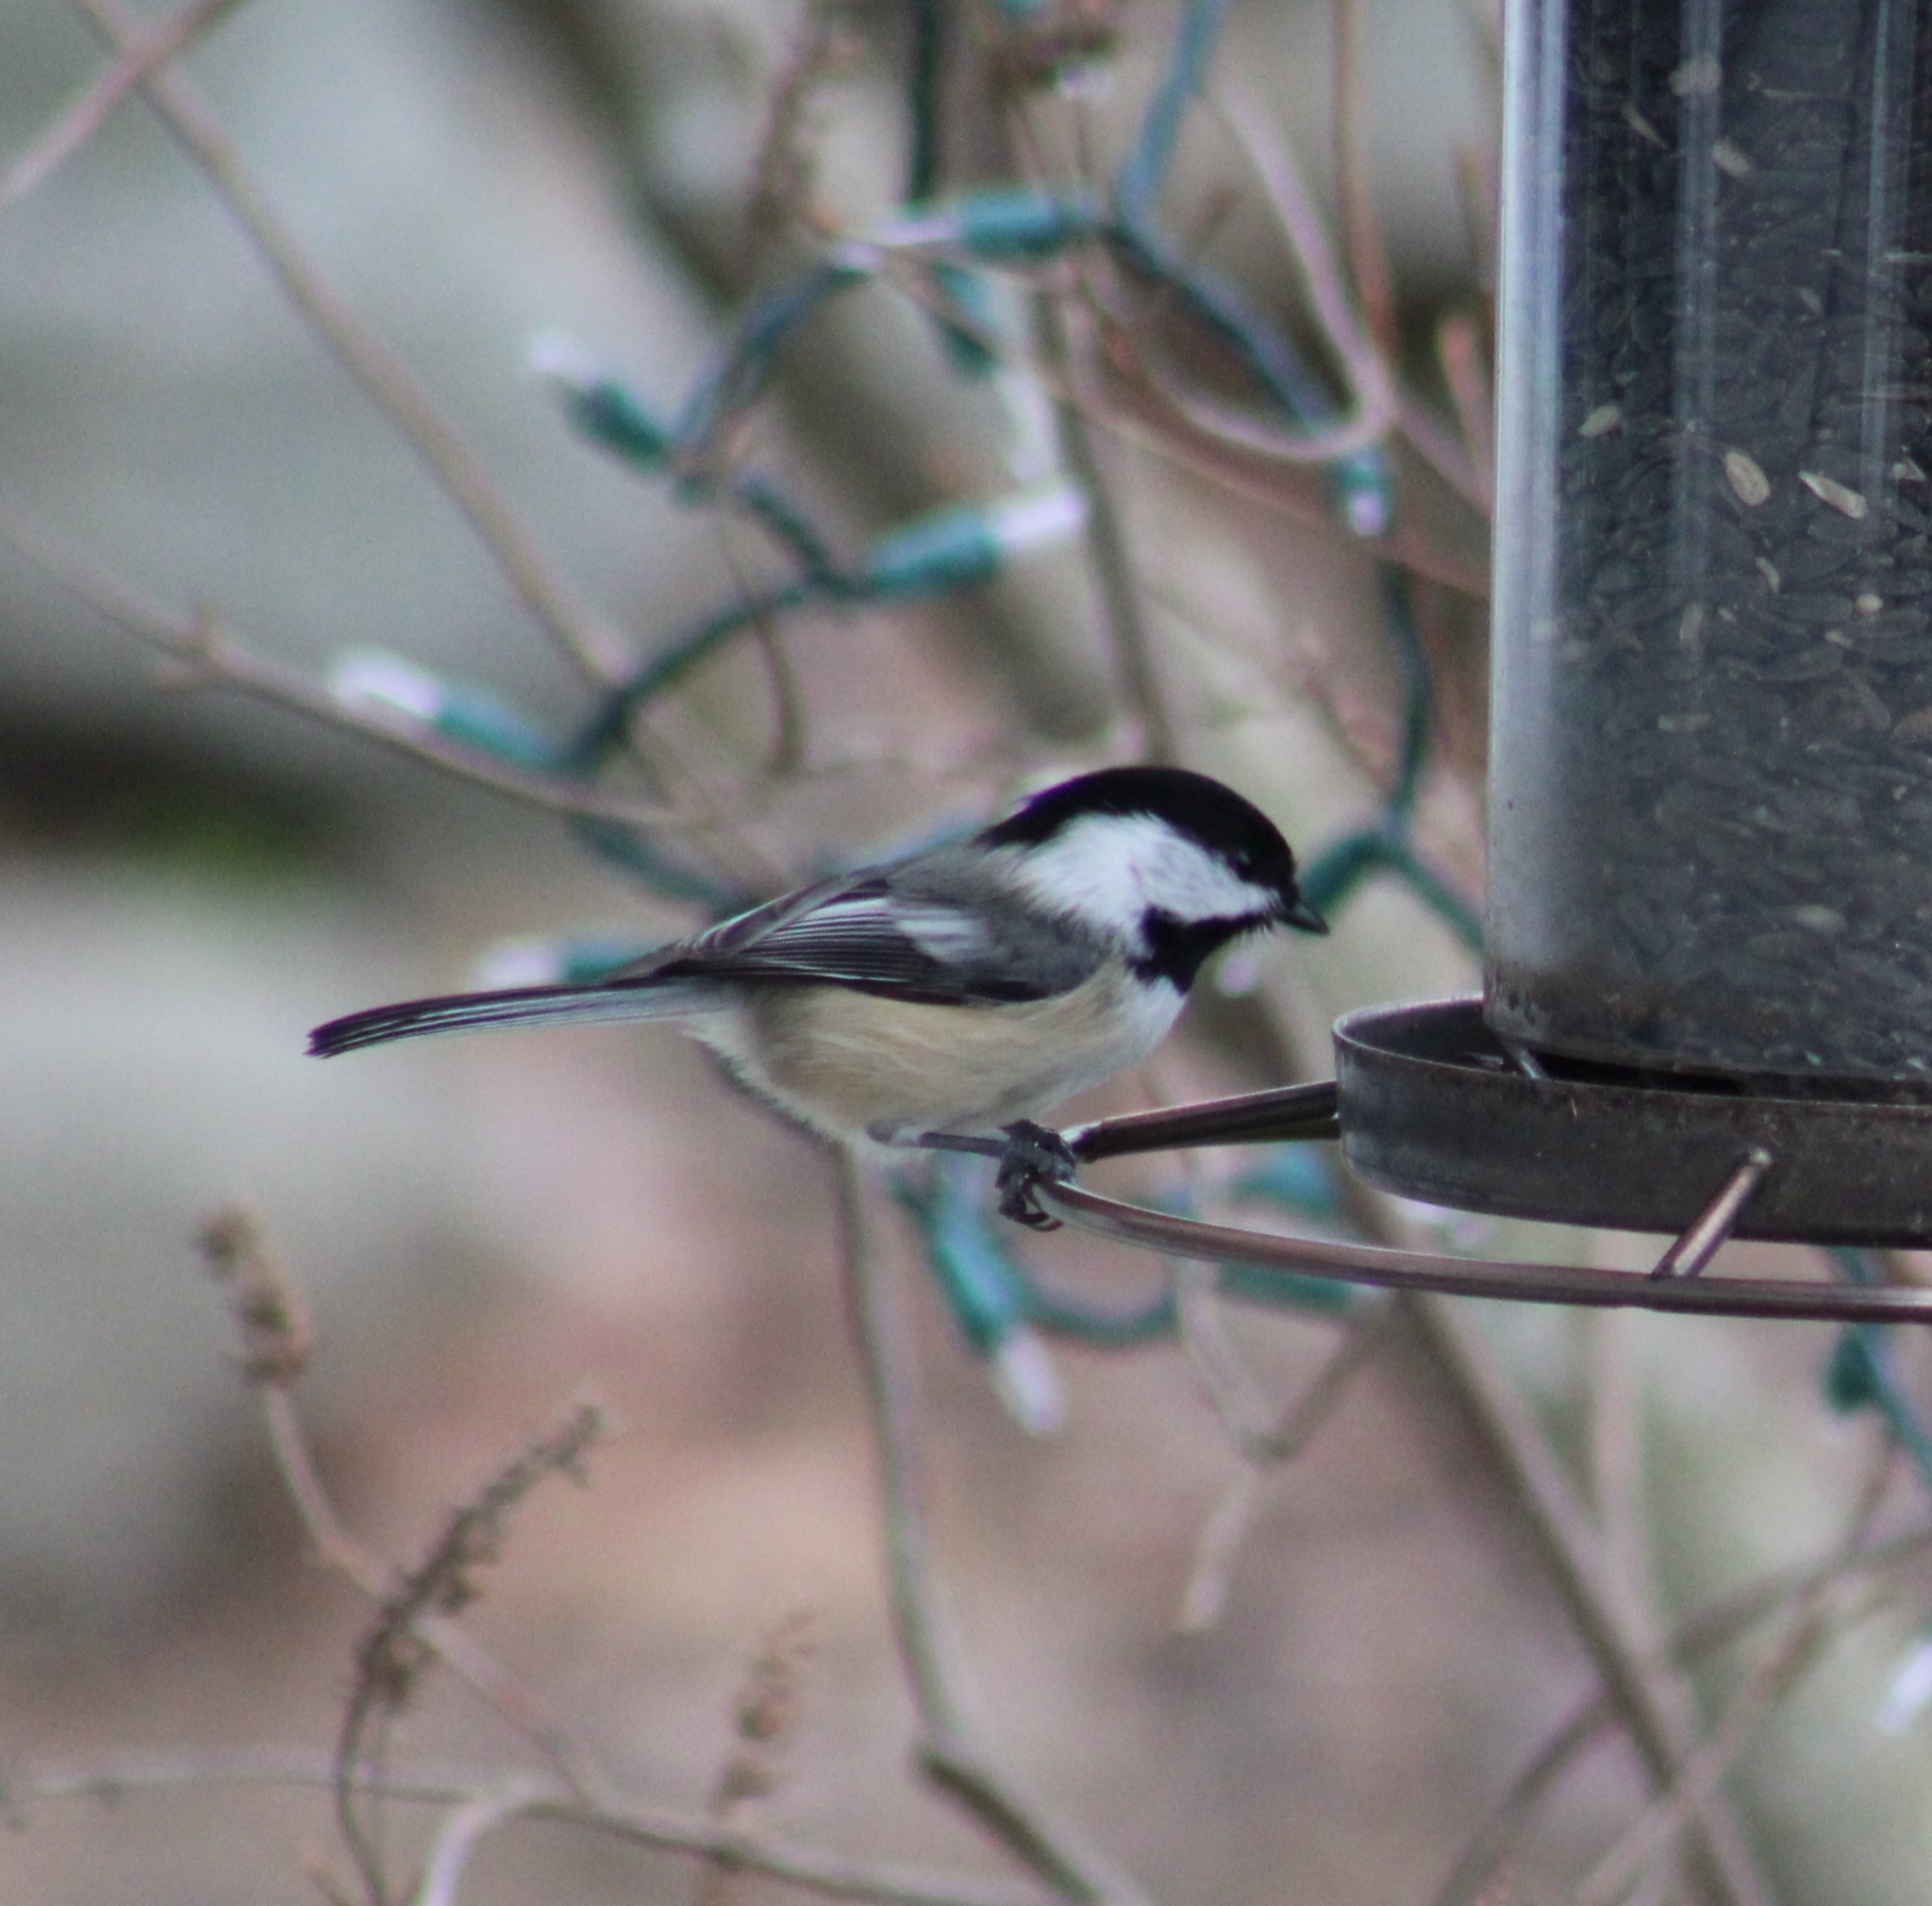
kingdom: Animalia
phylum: Chordata
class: Aves
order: Passeriformes
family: Paridae
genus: Poecile
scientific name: Poecile atricapillus
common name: Black-capped chickadee
